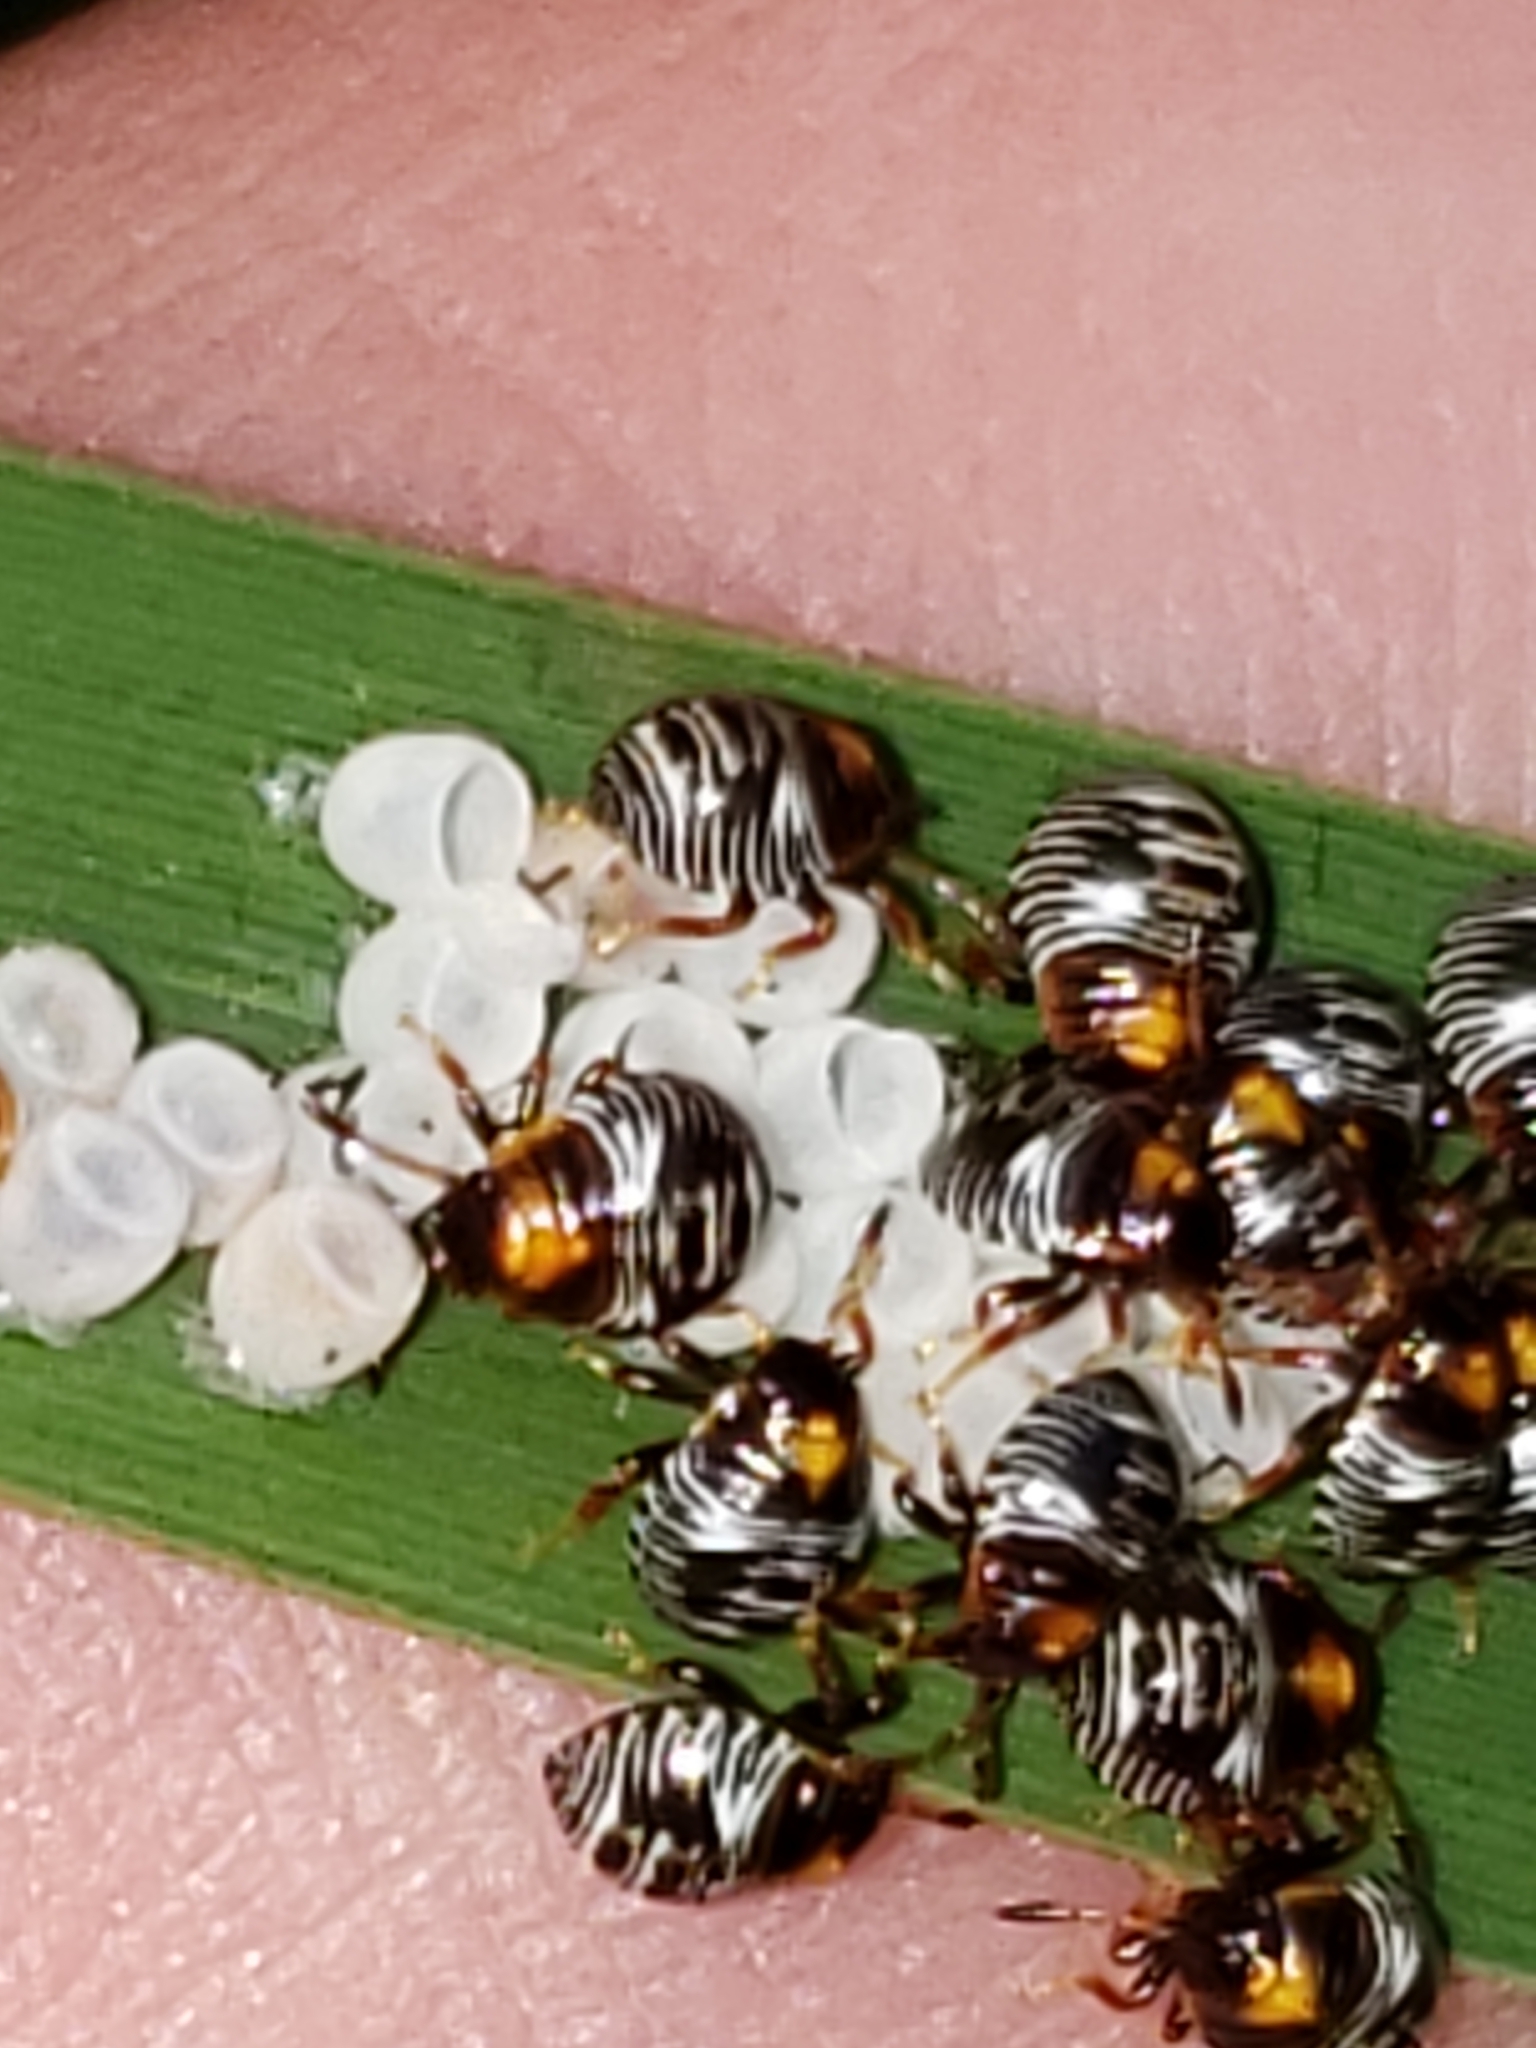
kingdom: Animalia
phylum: Arthropoda
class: Insecta
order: Hemiptera
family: Pentatomidae
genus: Chinavia
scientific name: Chinavia hilaris
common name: Green stink bug
